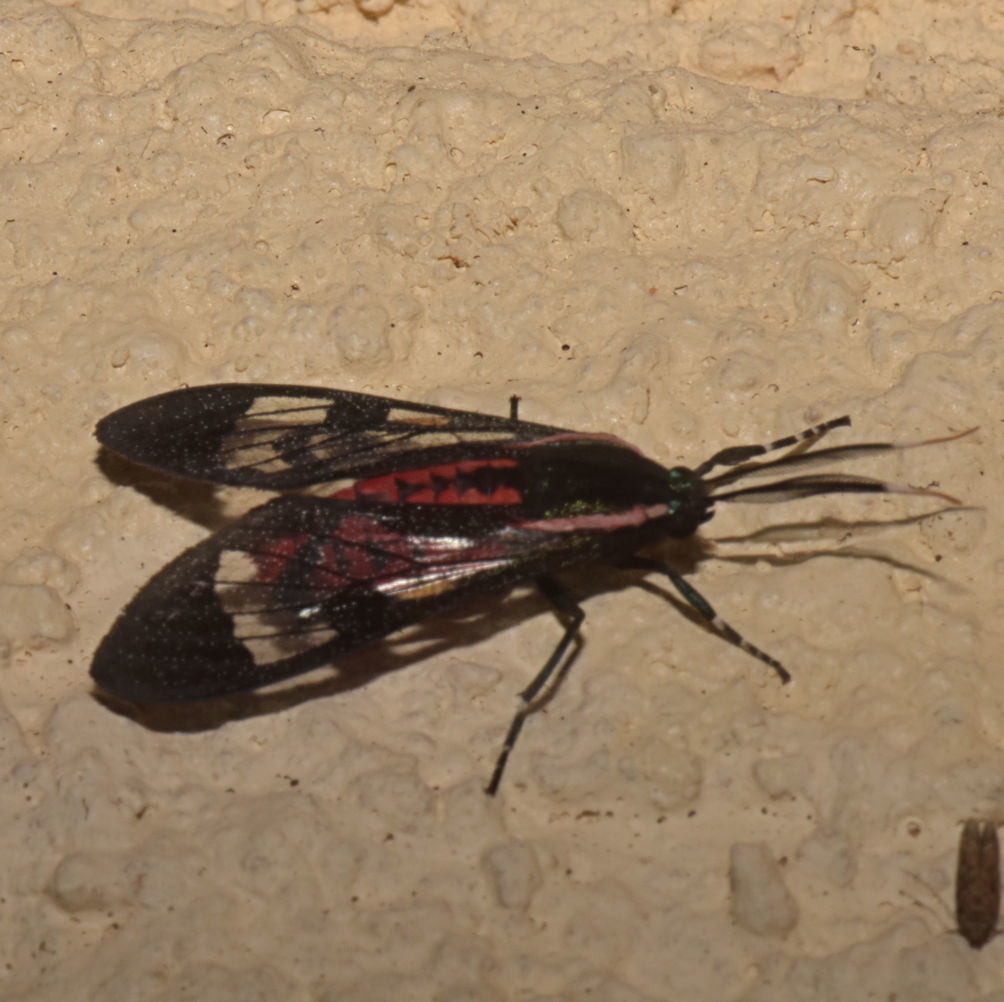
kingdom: Animalia
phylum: Arthropoda
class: Insecta
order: Lepidoptera
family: Erebidae
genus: Phoenicoprocta
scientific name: Phoenicoprocta jamaicensis
